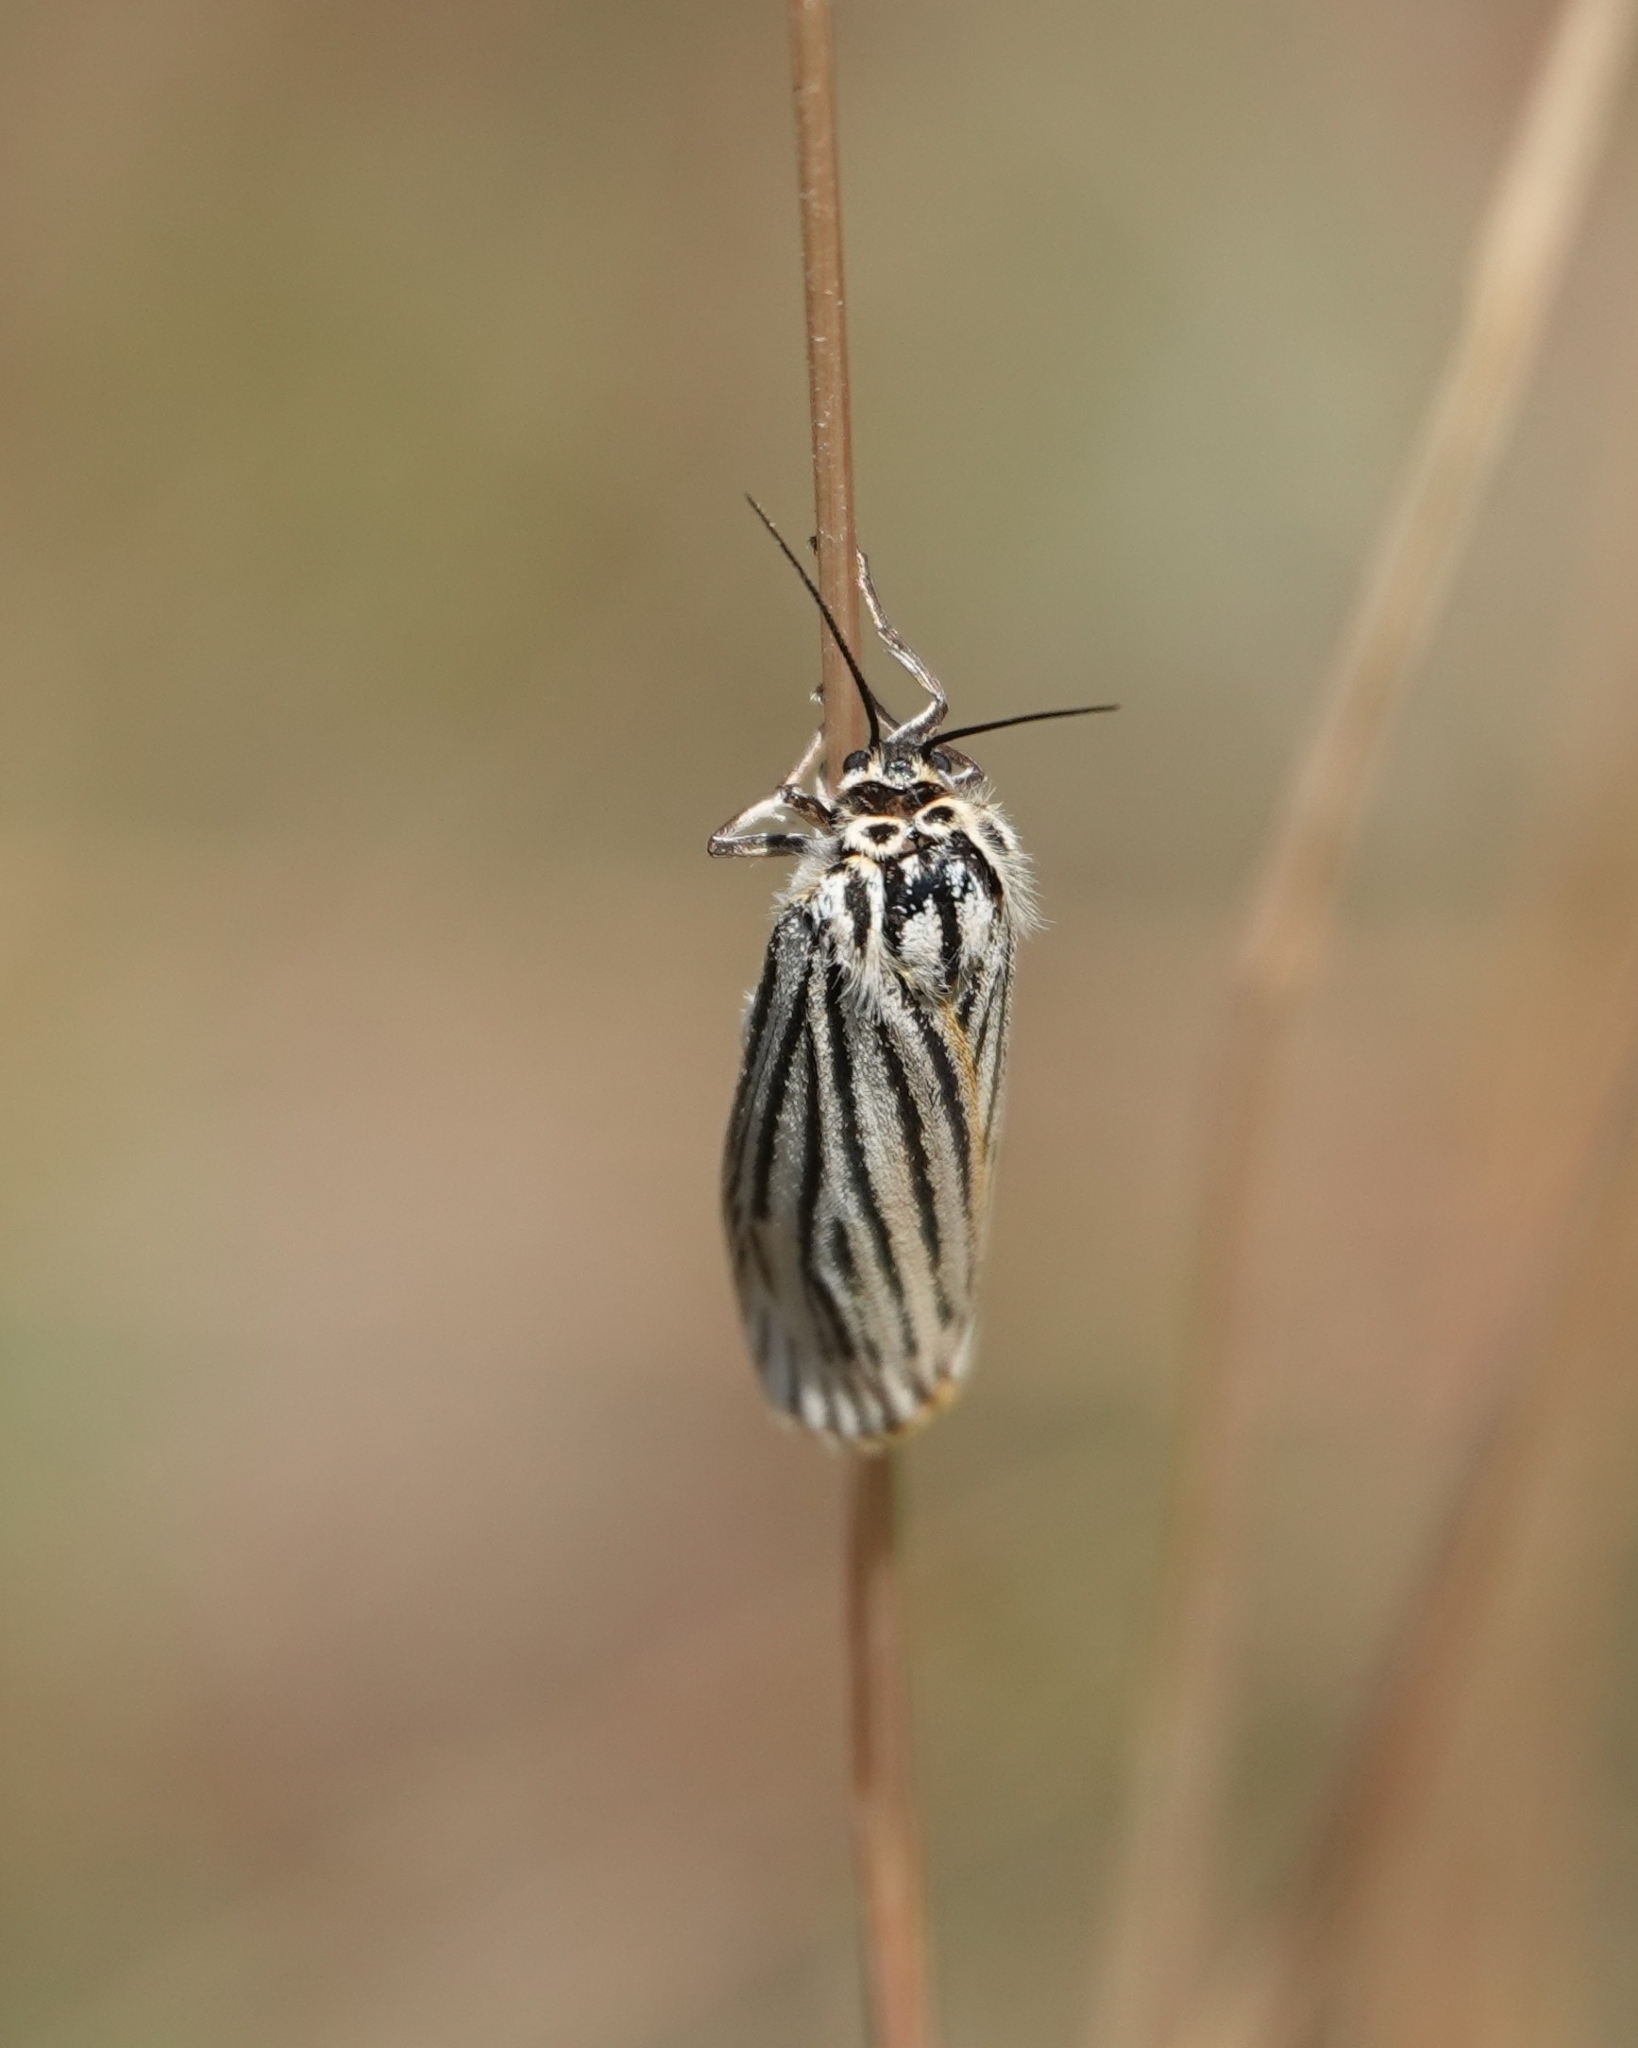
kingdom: Animalia
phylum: Arthropoda
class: Insecta
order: Lepidoptera
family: Erebidae
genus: Coscinia
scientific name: Coscinia Spiris striata
